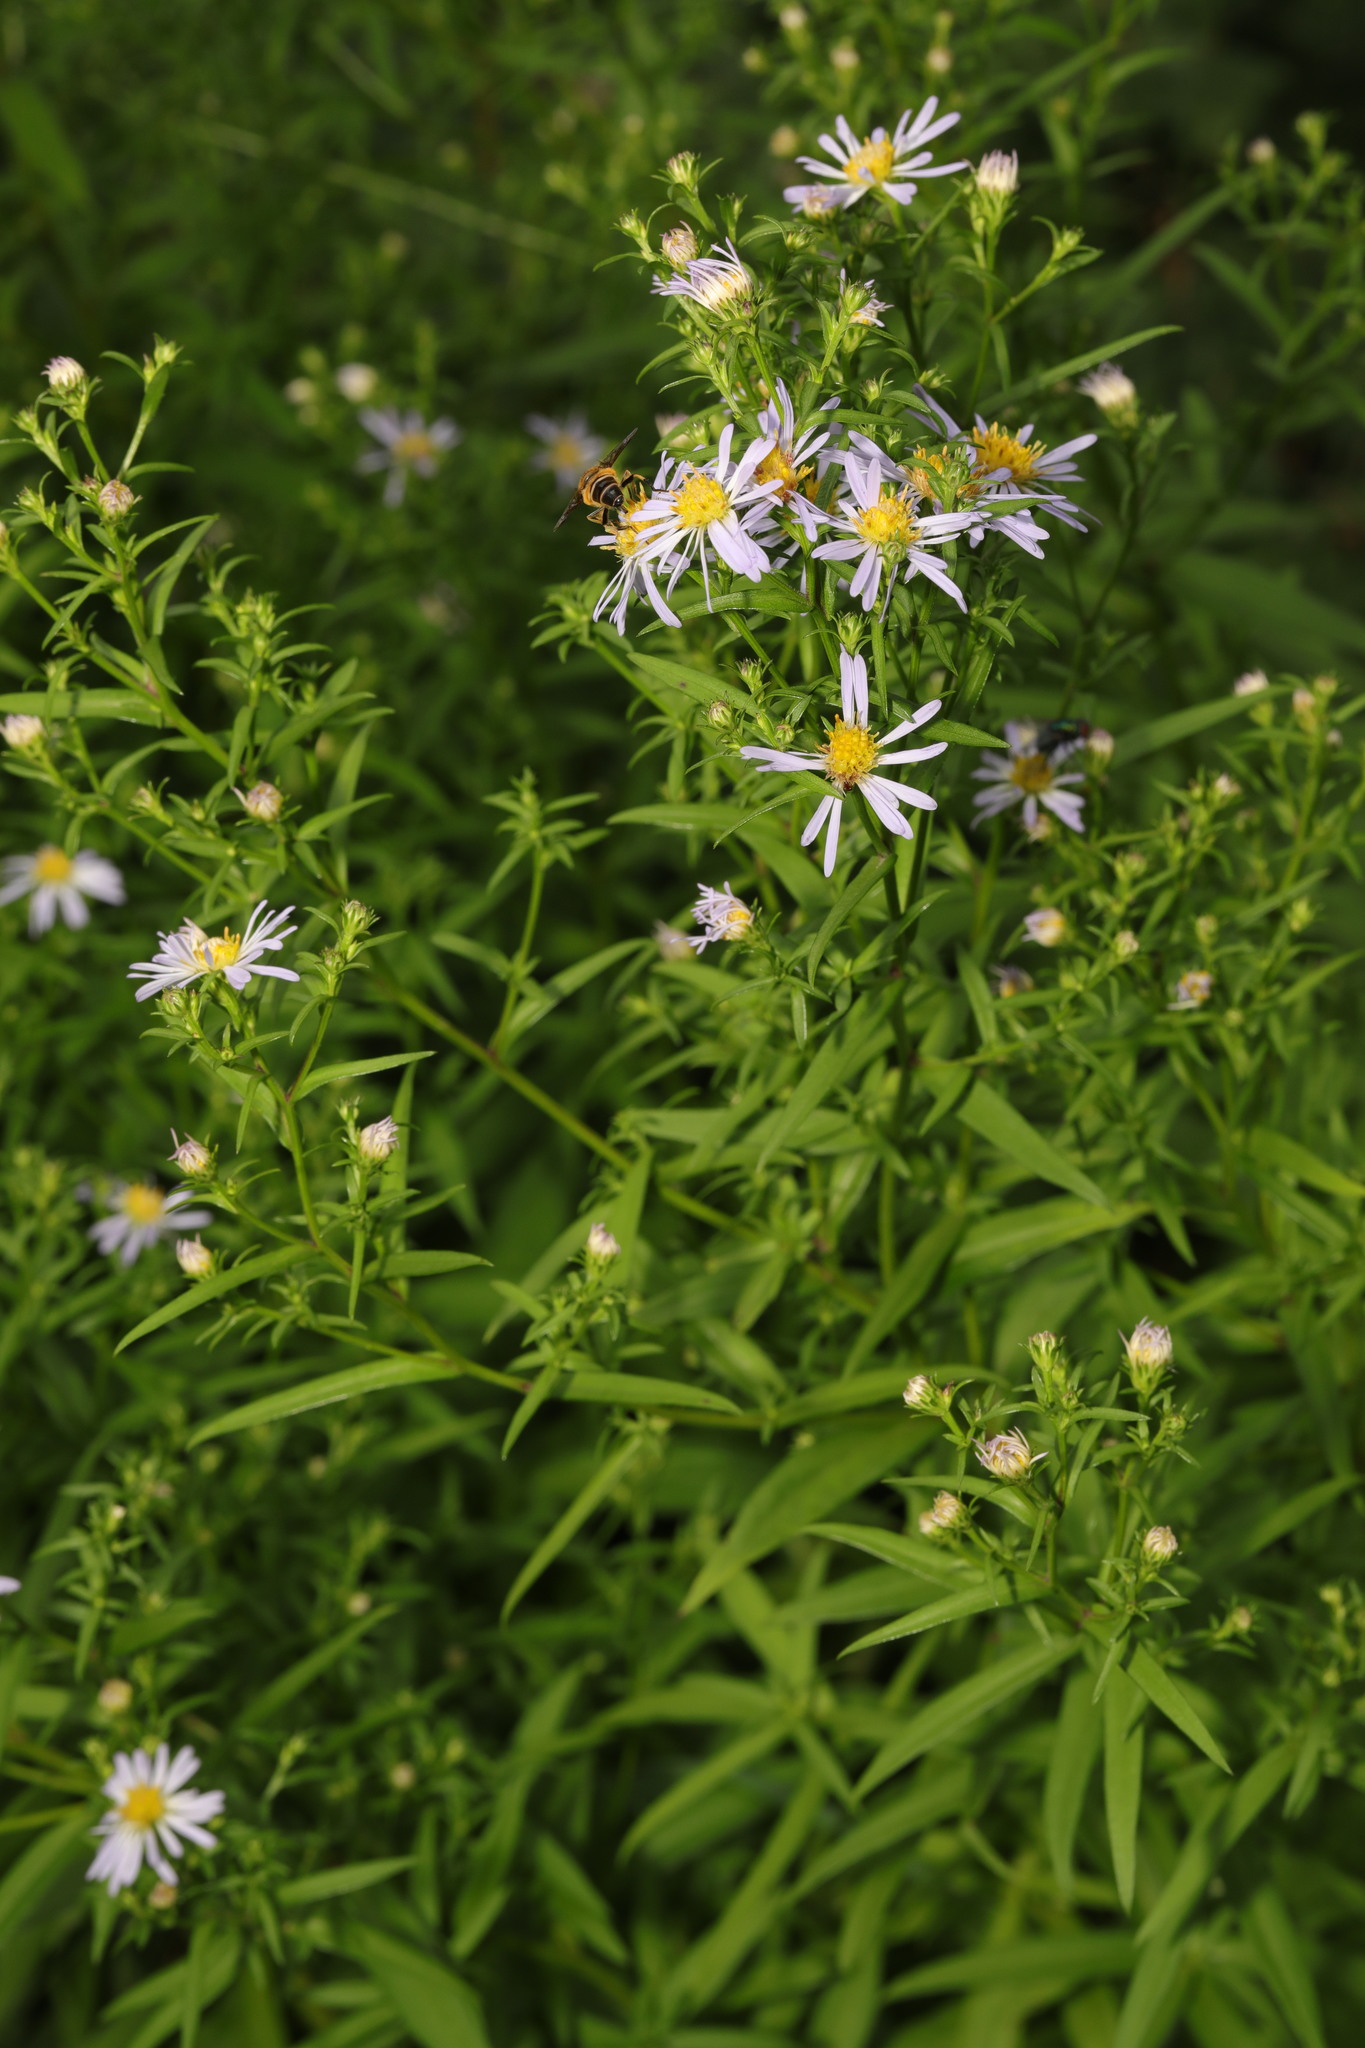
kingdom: Plantae
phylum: Tracheophyta
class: Magnoliopsida
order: Asterales
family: Asteraceae
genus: Symphyotrichum
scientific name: Symphyotrichum
